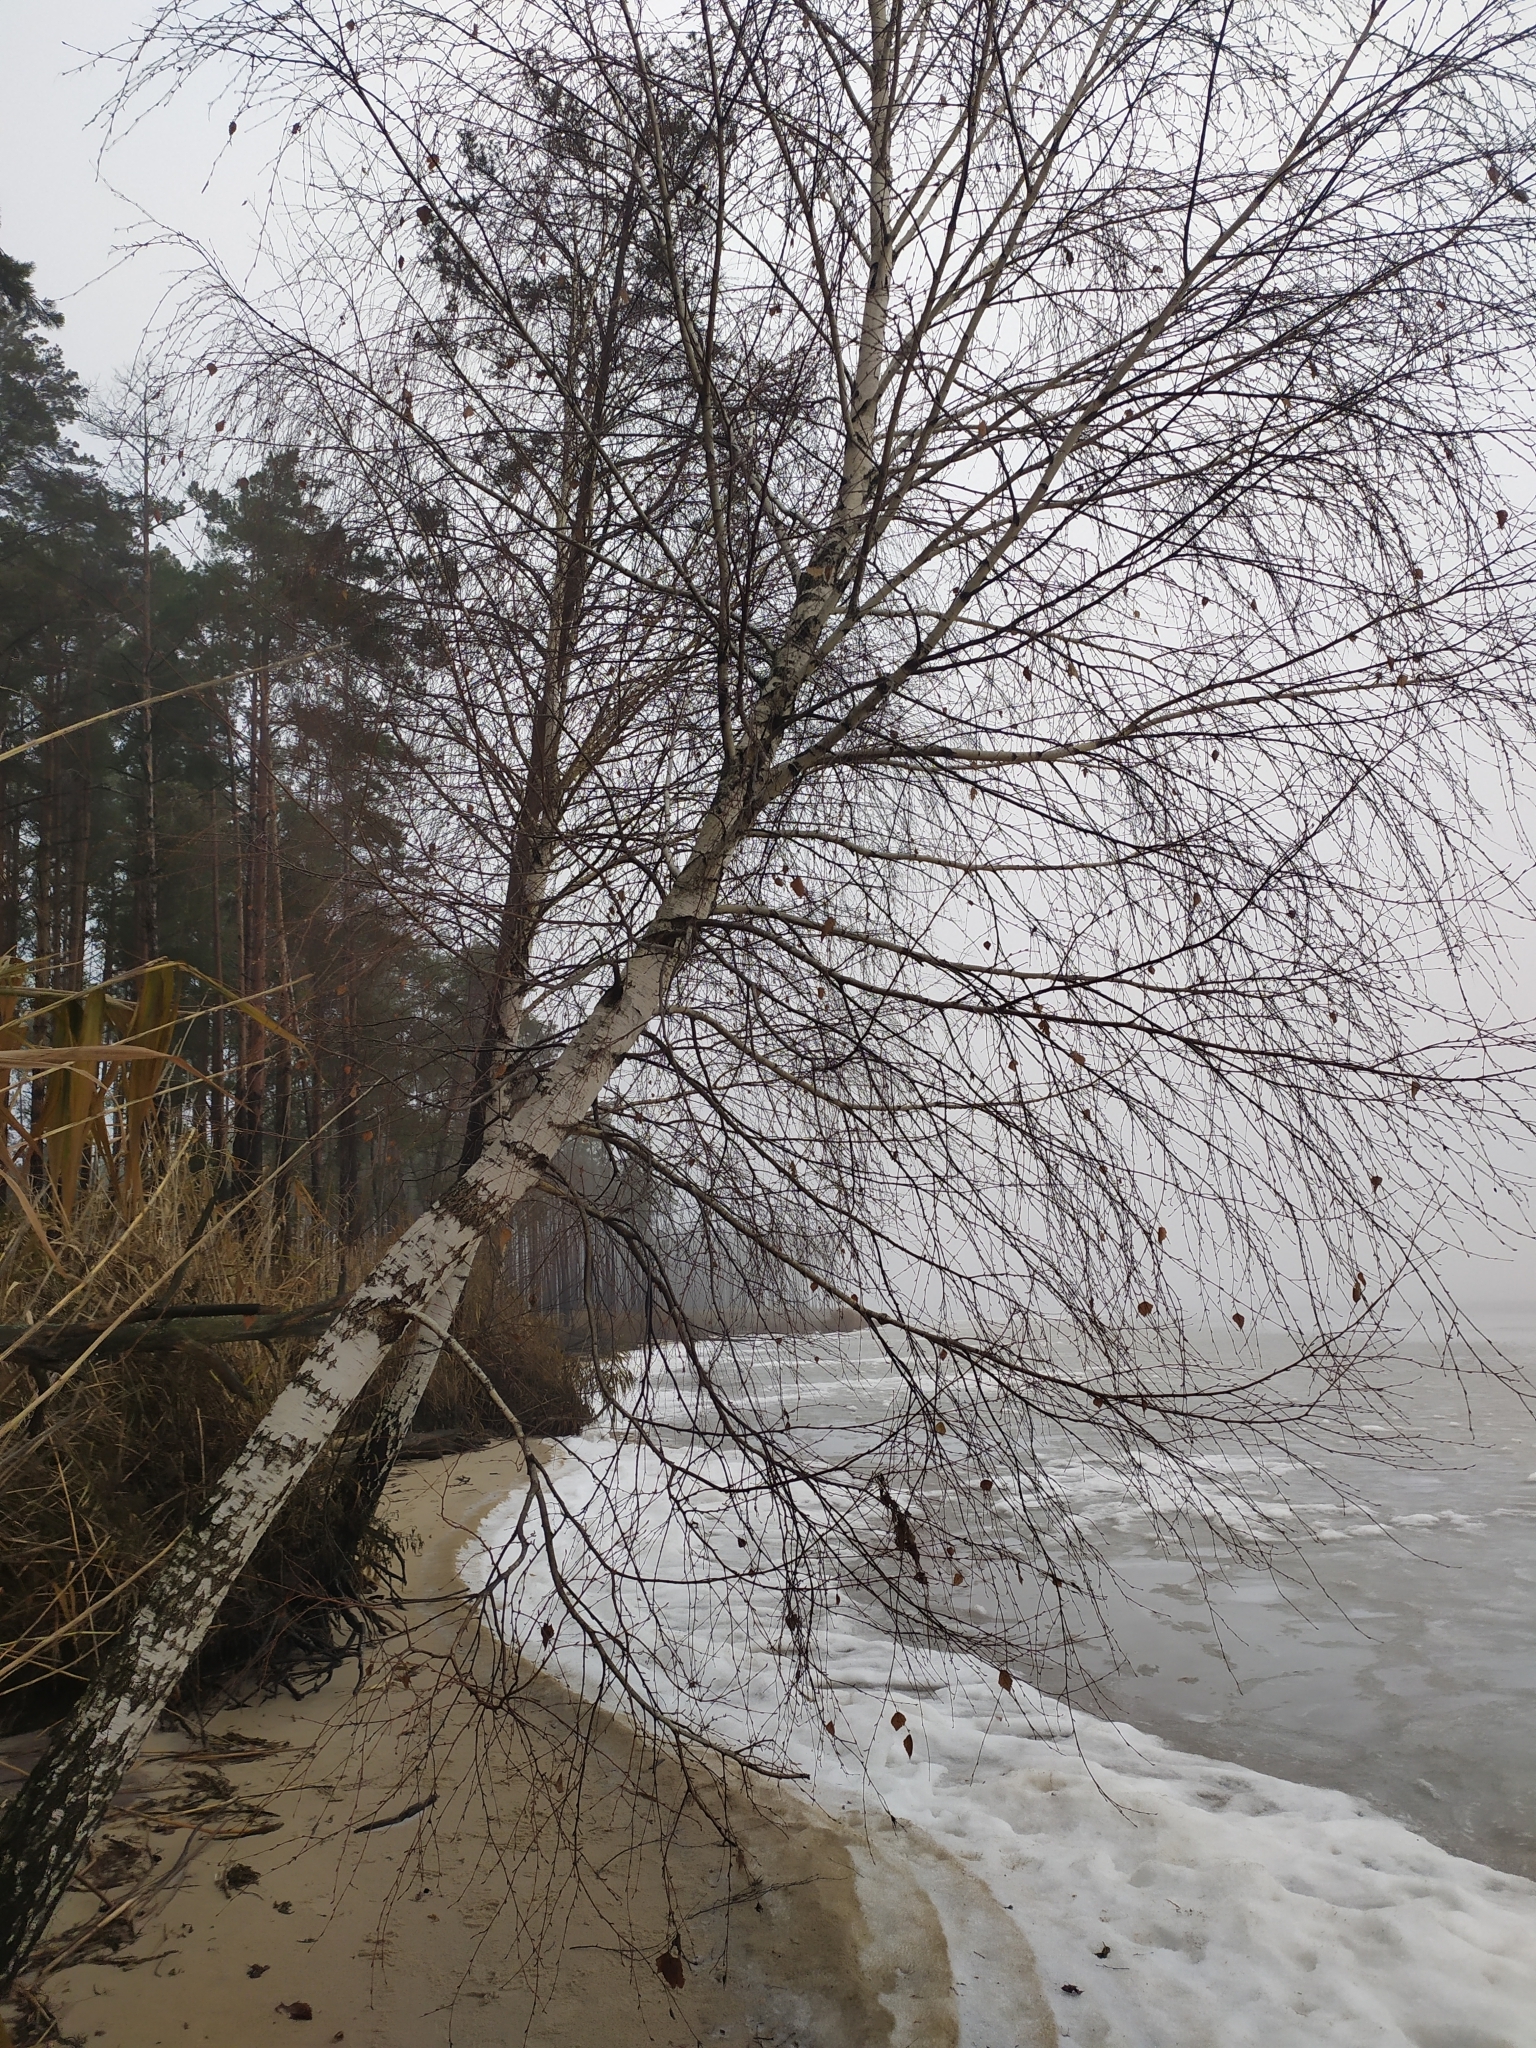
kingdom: Plantae
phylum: Tracheophyta
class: Magnoliopsida
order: Fagales
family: Betulaceae
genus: Betula
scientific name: Betula pendula
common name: Silver birch
